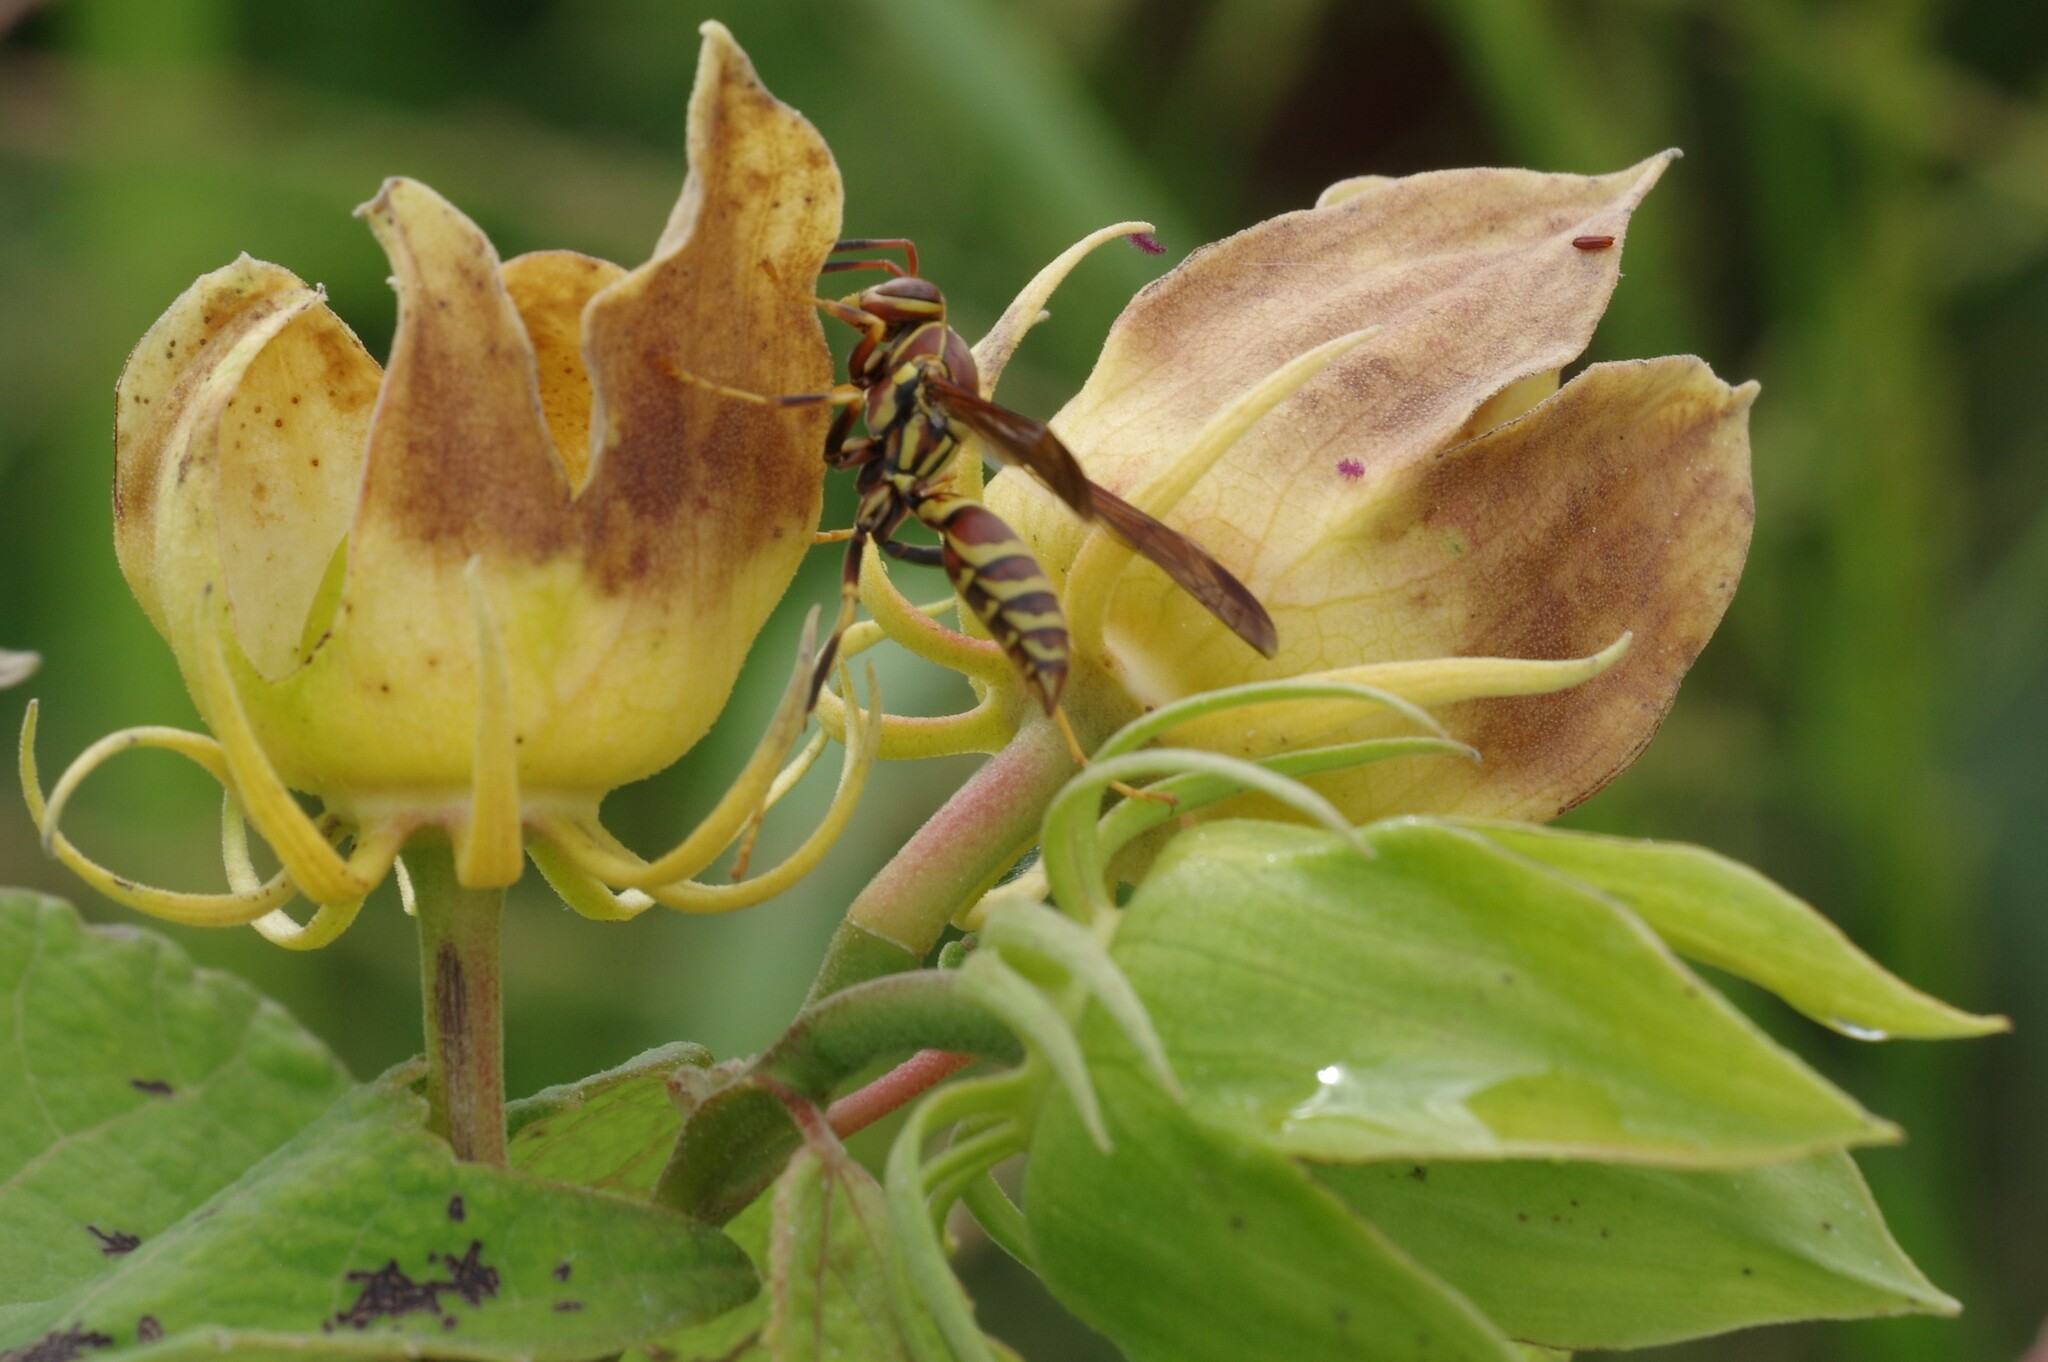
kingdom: Animalia
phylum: Arthropoda
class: Insecta
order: Hymenoptera
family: Eumenidae
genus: Polistes
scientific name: Polistes exclamans
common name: Paper wasp
